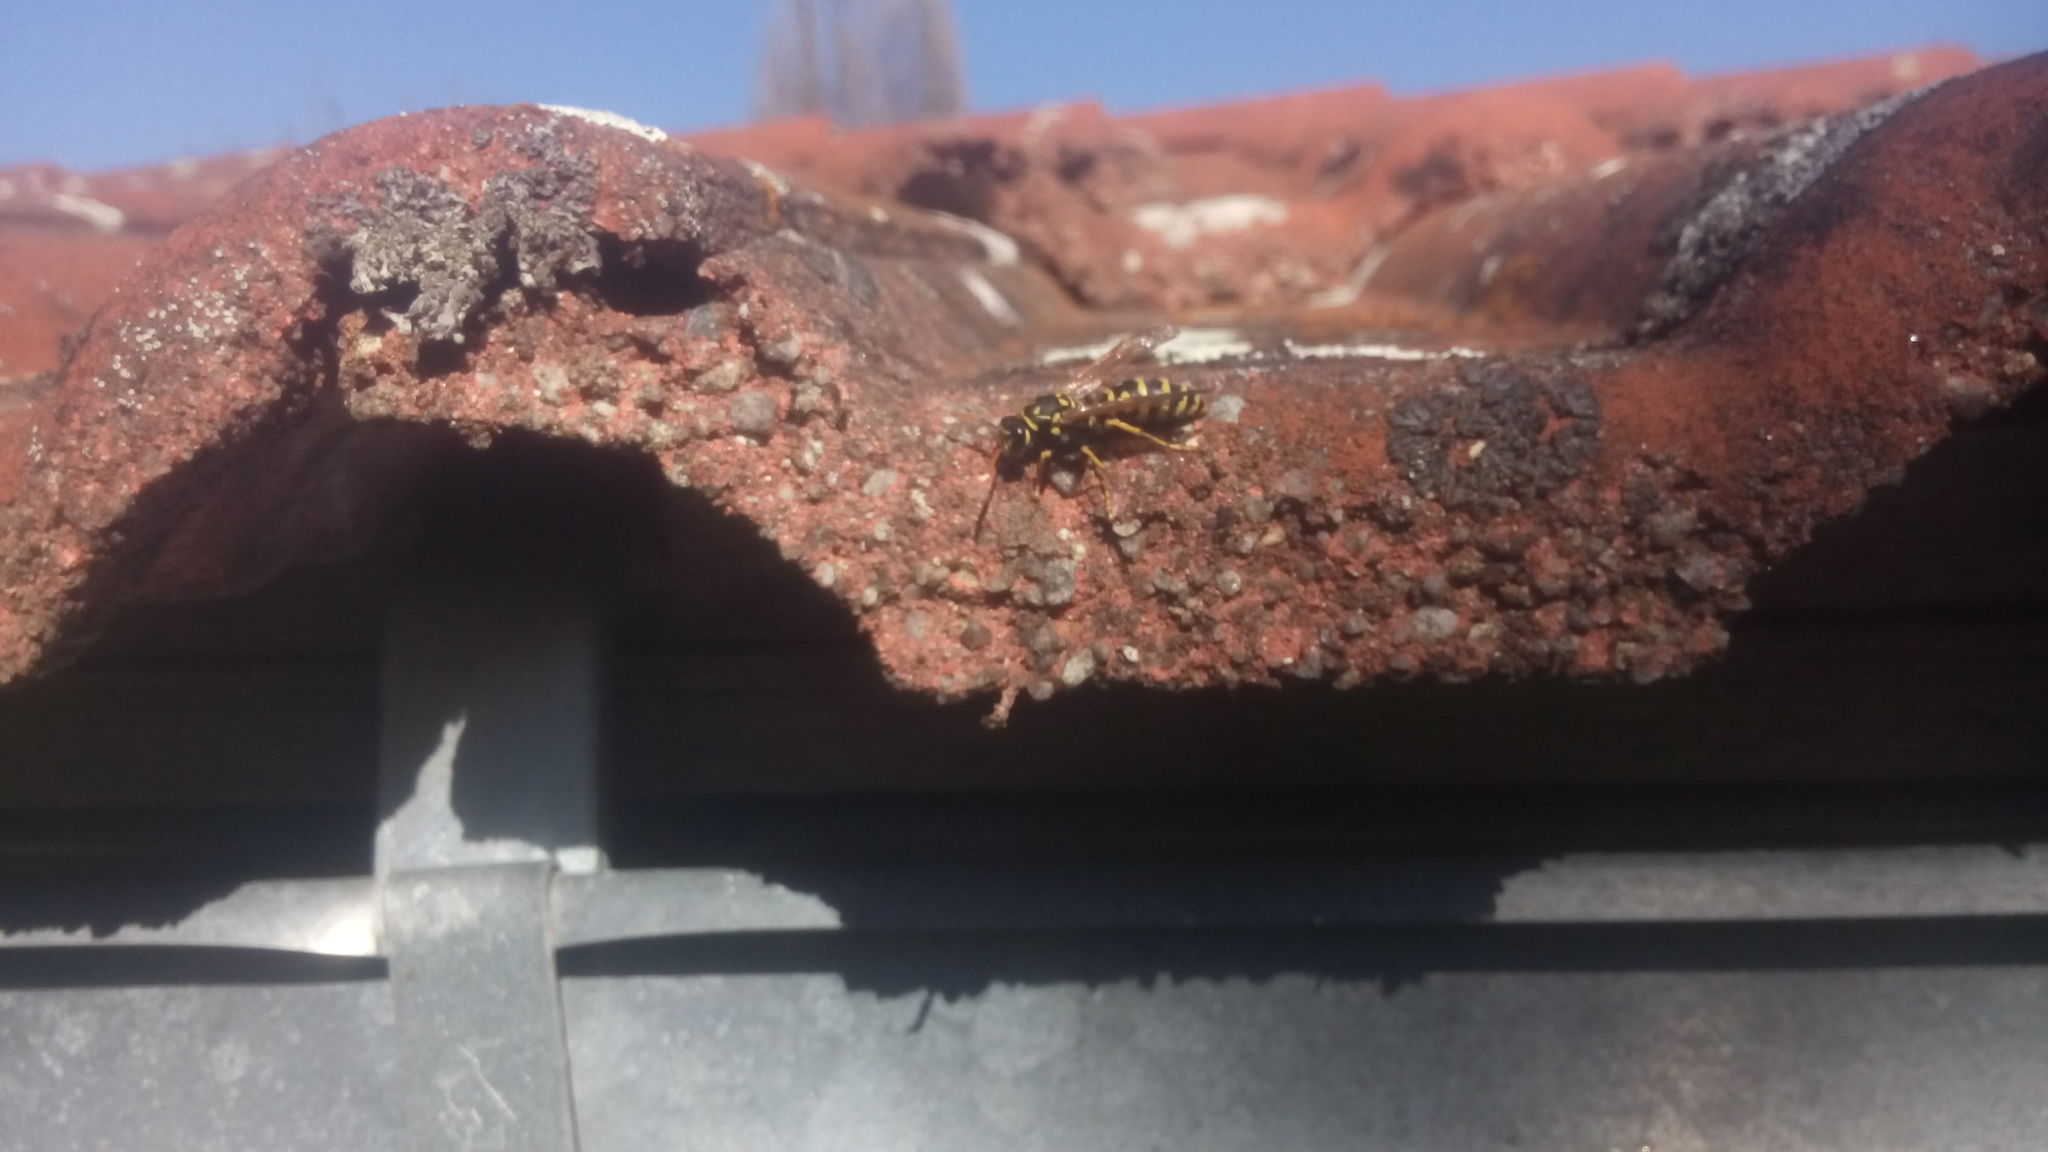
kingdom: Animalia
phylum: Arthropoda
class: Insecta
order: Hymenoptera
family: Eumenidae
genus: Polistes
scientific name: Polistes dominula
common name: Paper wasp
